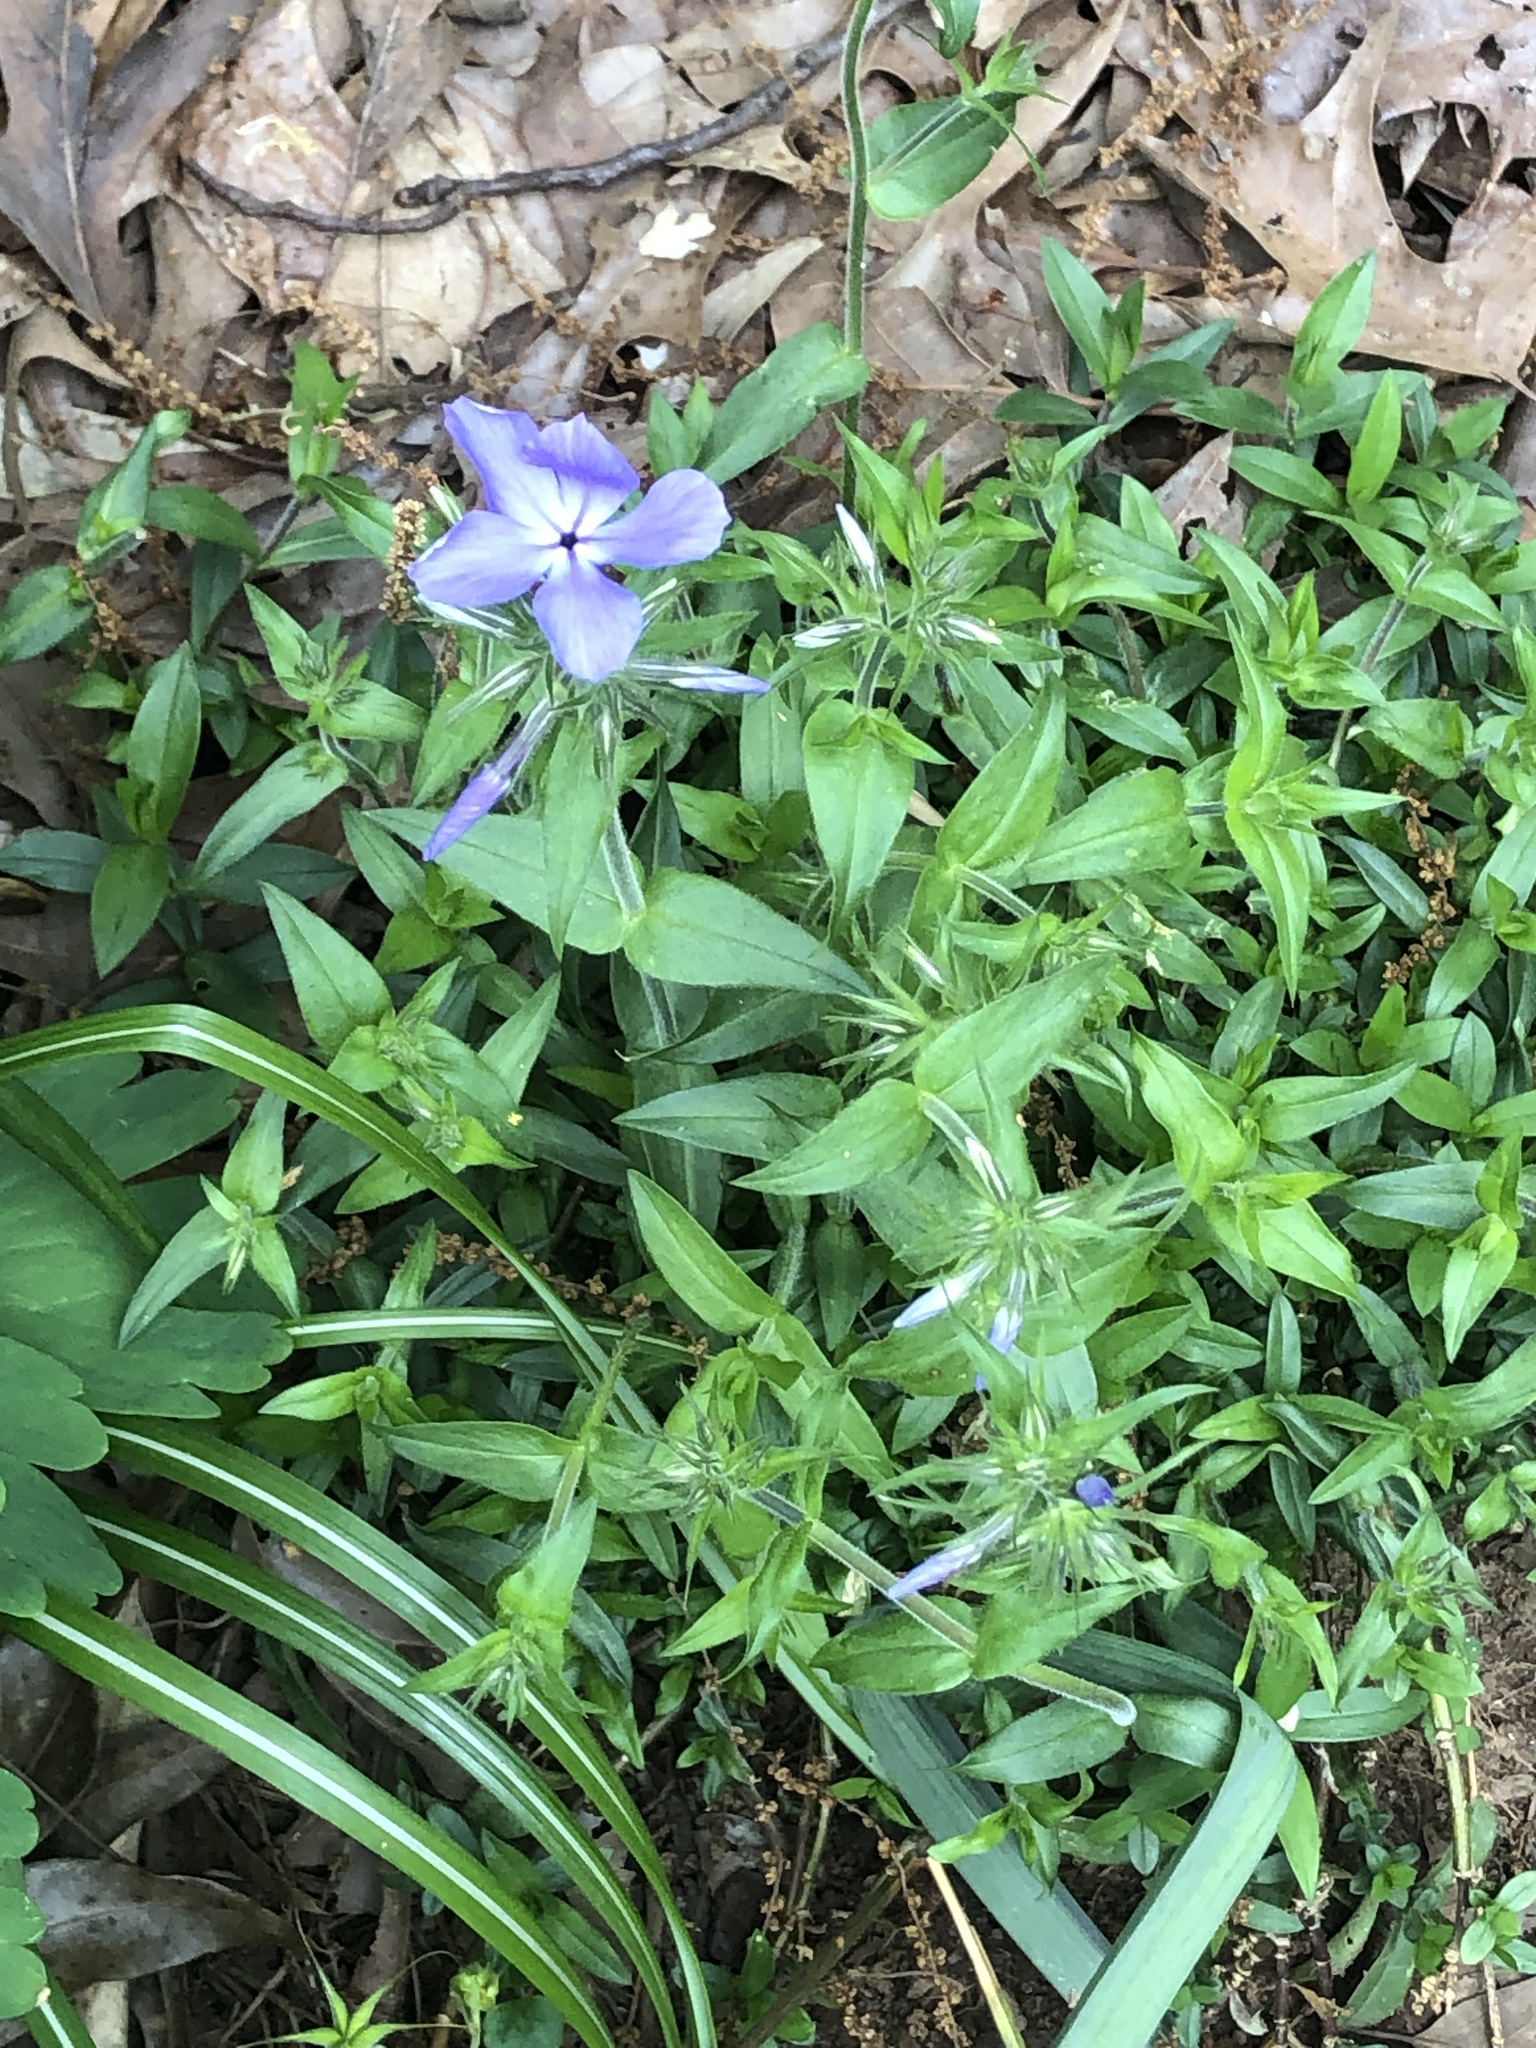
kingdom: Plantae
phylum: Tracheophyta
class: Magnoliopsida
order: Ericales
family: Polemoniaceae
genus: Phlox
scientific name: Phlox divaricata
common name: Blue phlox
